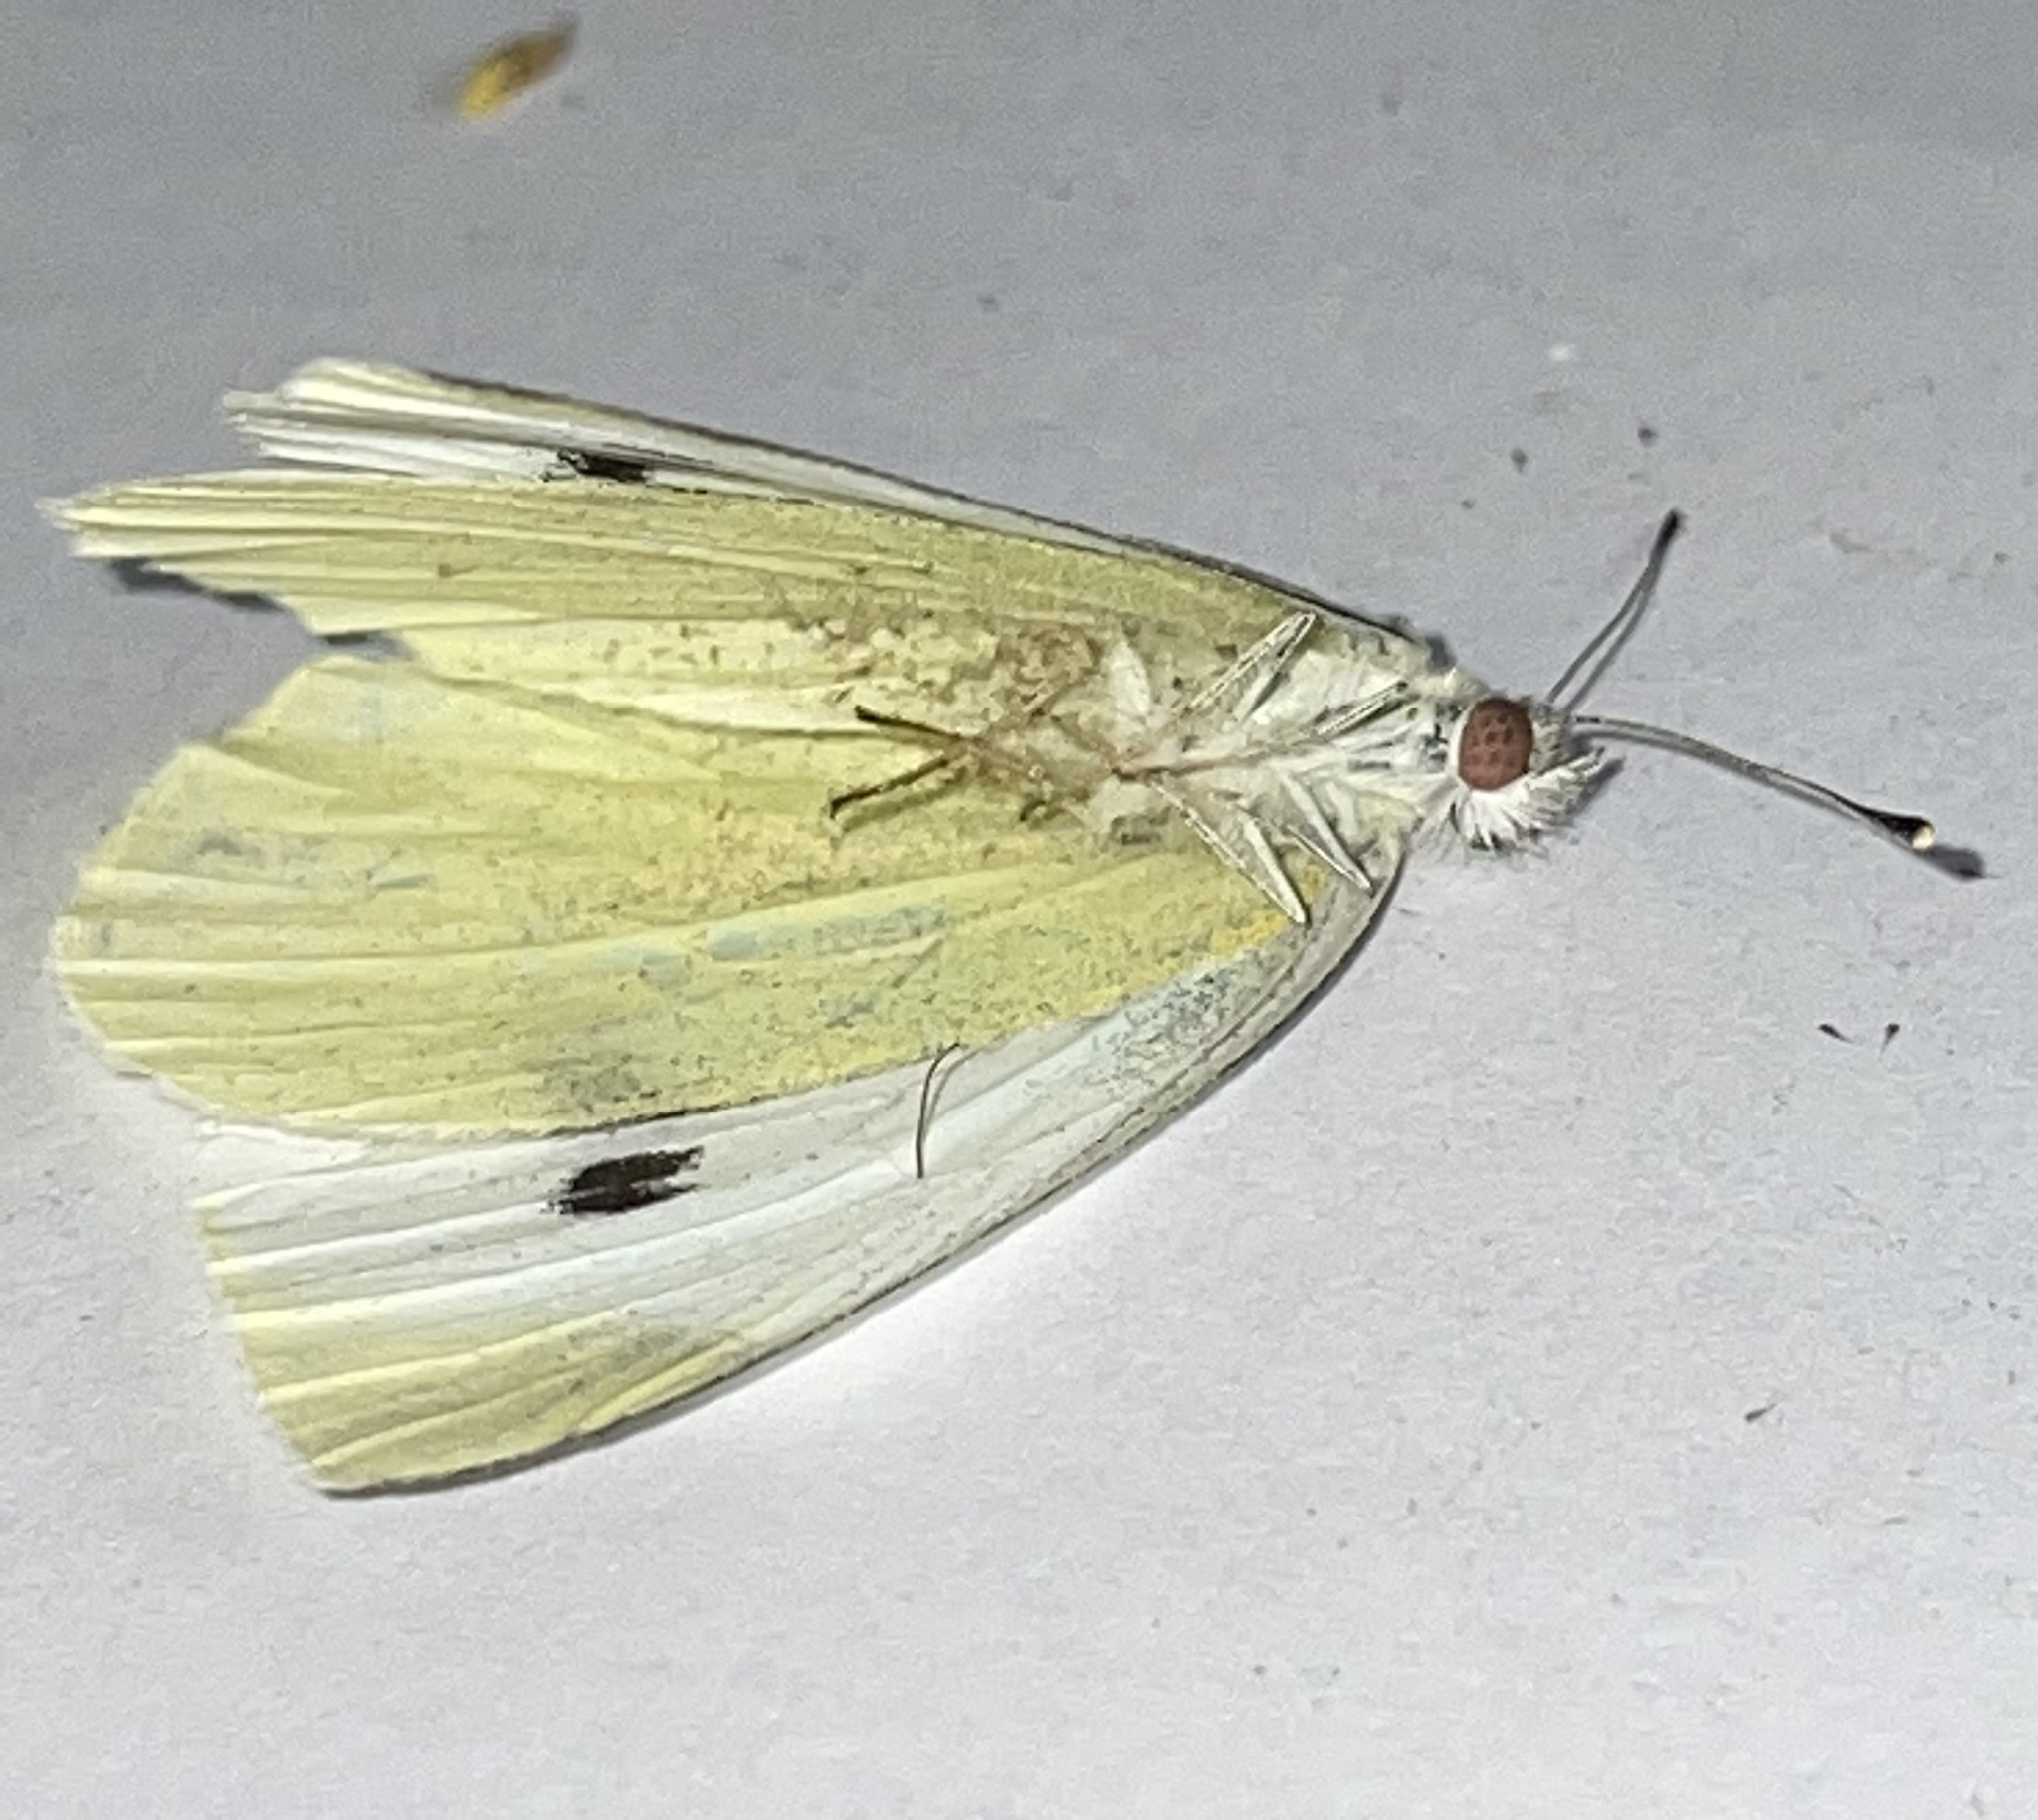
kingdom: Animalia
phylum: Arthropoda
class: Insecta
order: Lepidoptera
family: Pieridae
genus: Pieris
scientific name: Pieris rapae
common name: Small white
